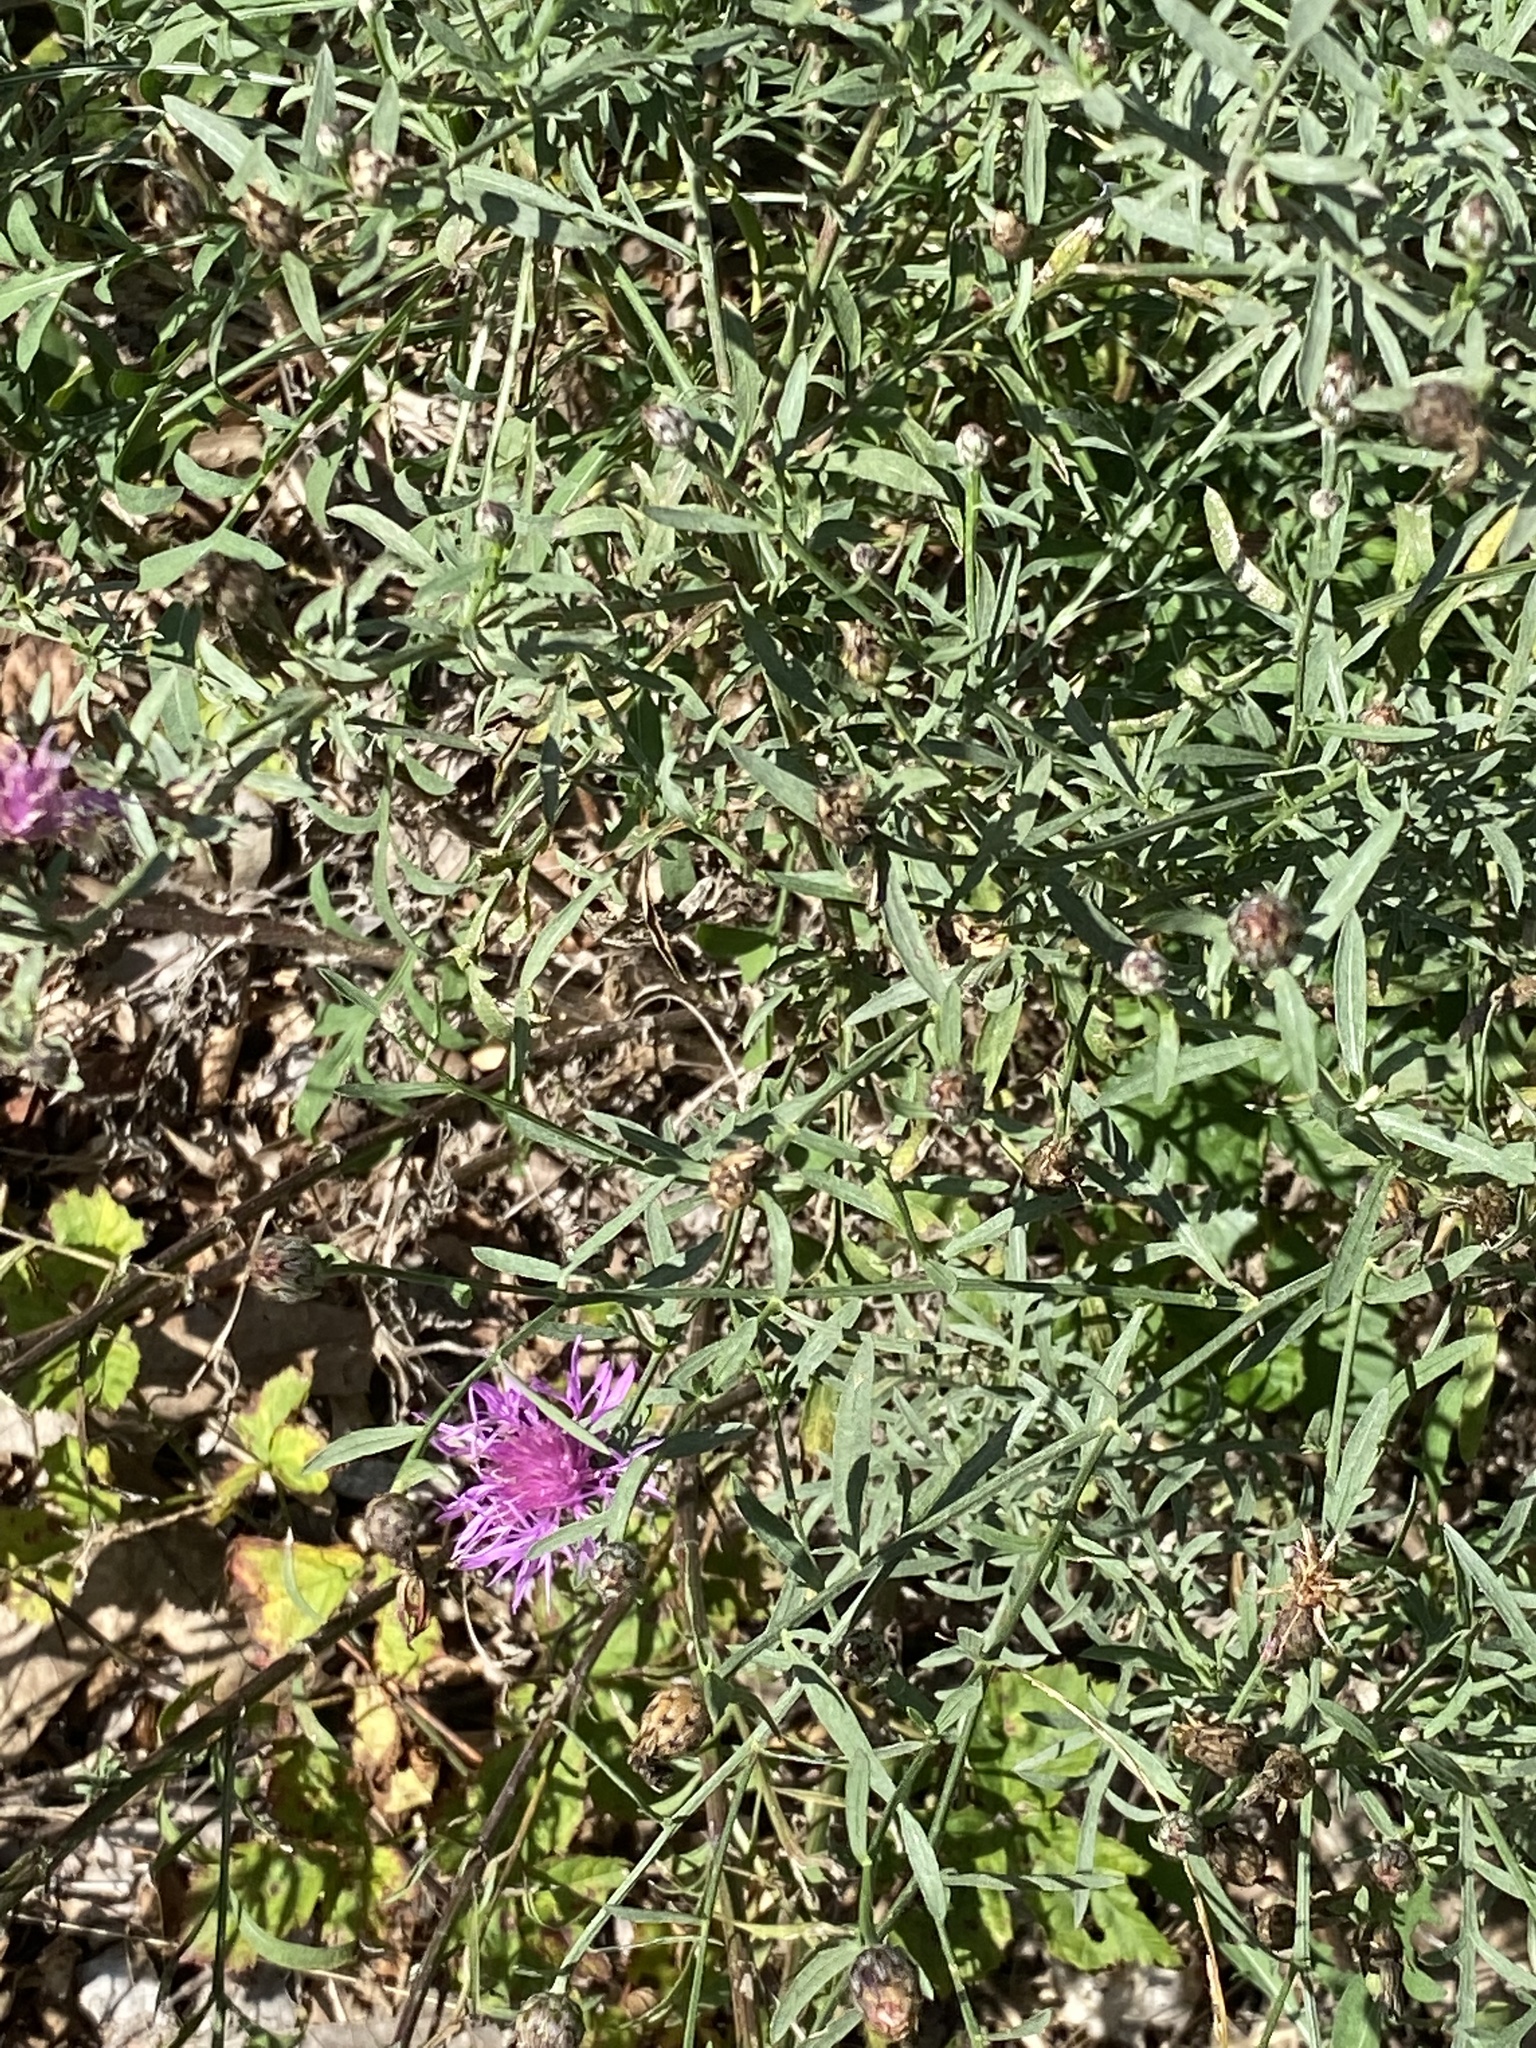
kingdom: Plantae
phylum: Tracheophyta
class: Magnoliopsida
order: Asterales
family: Asteraceae
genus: Centaurea
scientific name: Centaurea stoebe
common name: Spotted knapweed
